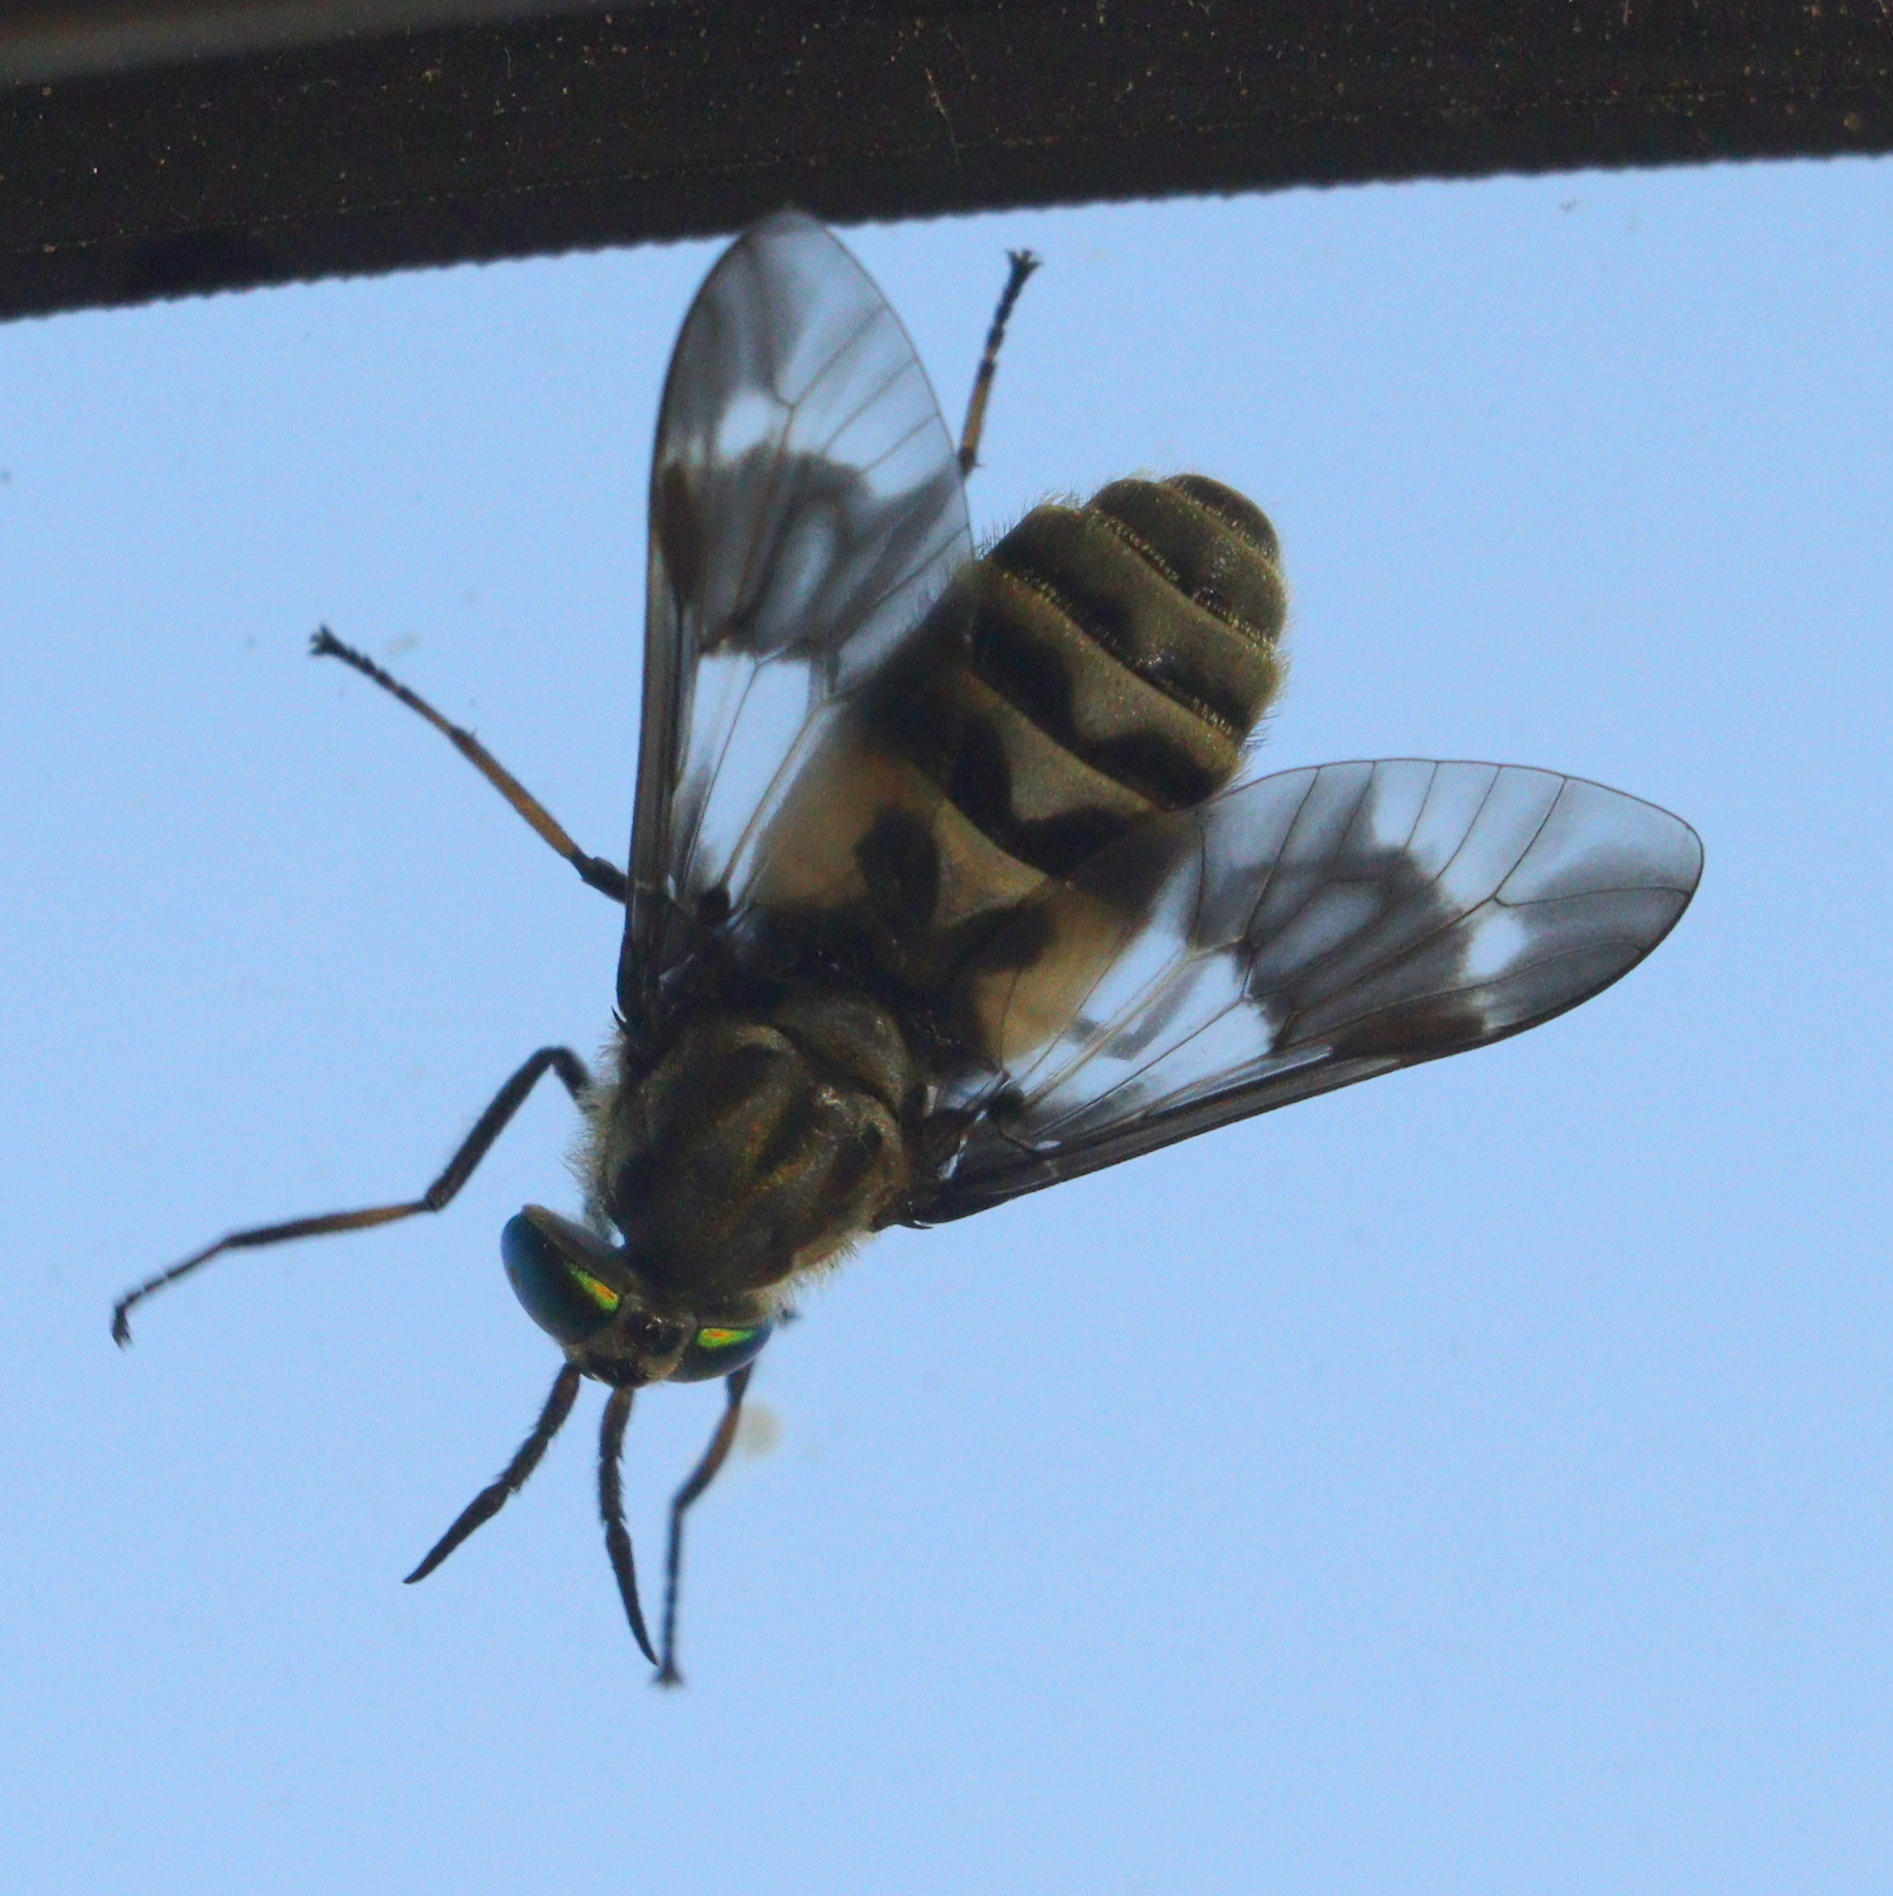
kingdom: Animalia
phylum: Arthropoda
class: Insecta
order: Diptera
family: Tabanidae
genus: Chrysops
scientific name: Chrysops relictus
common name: Twin-lobed deerfly
